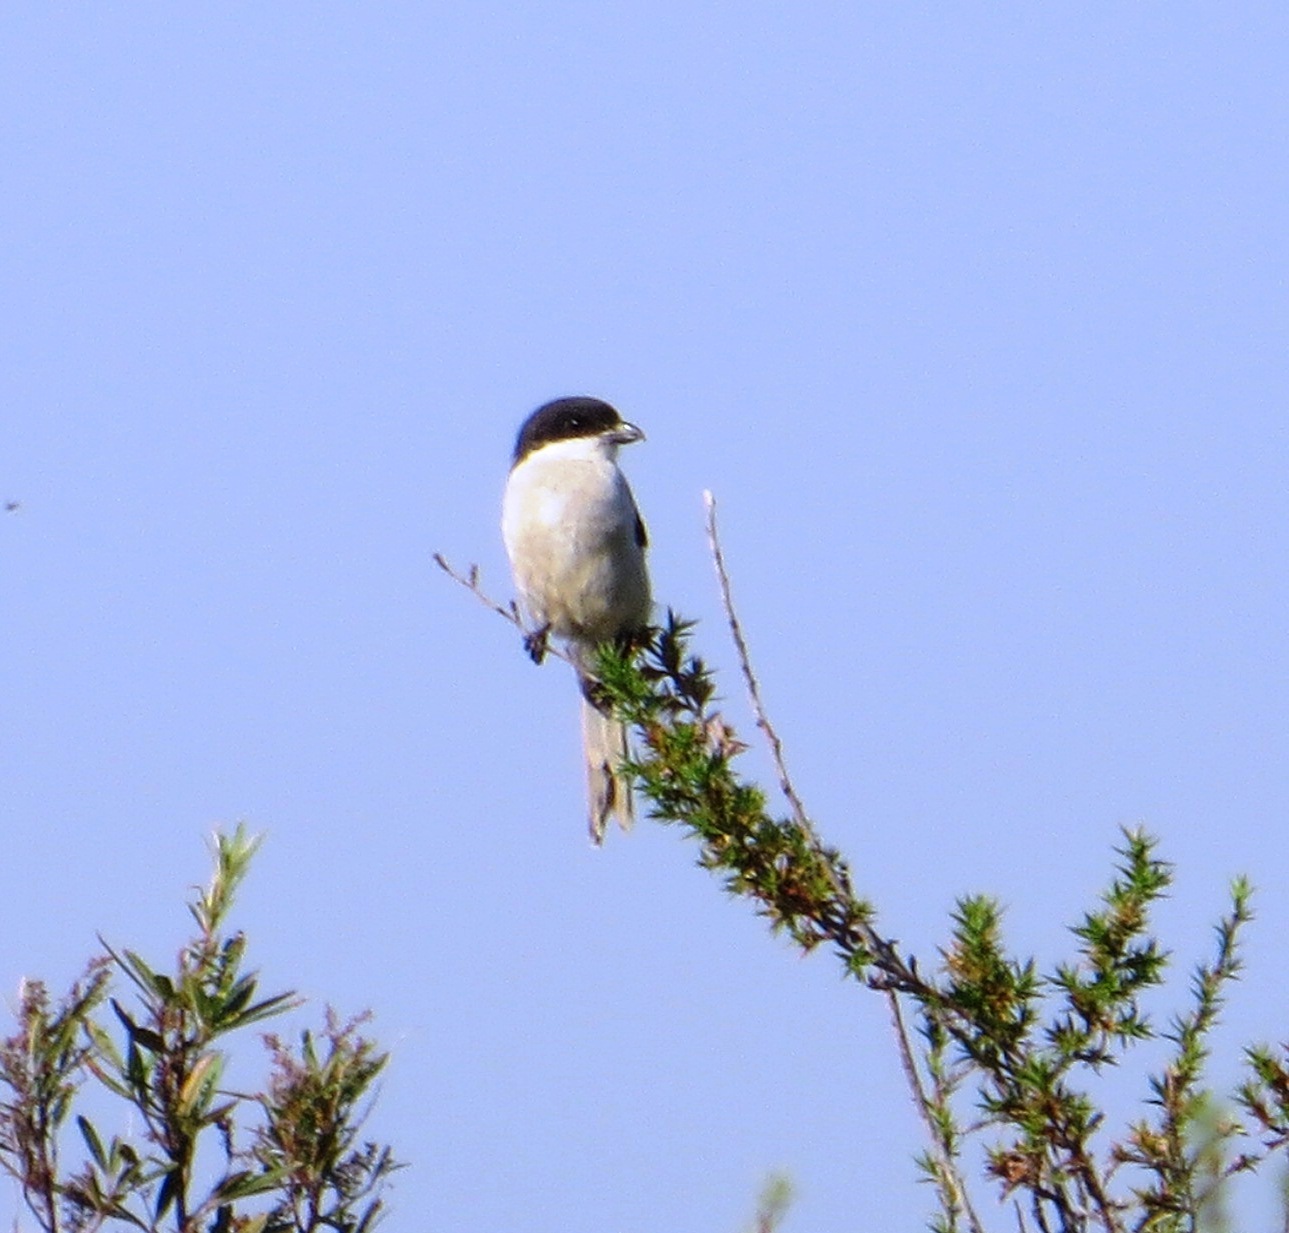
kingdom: Animalia
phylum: Chordata
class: Aves
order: Passeriformes
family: Laniidae
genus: Lanius
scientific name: Lanius collaris
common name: Southern fiscal
